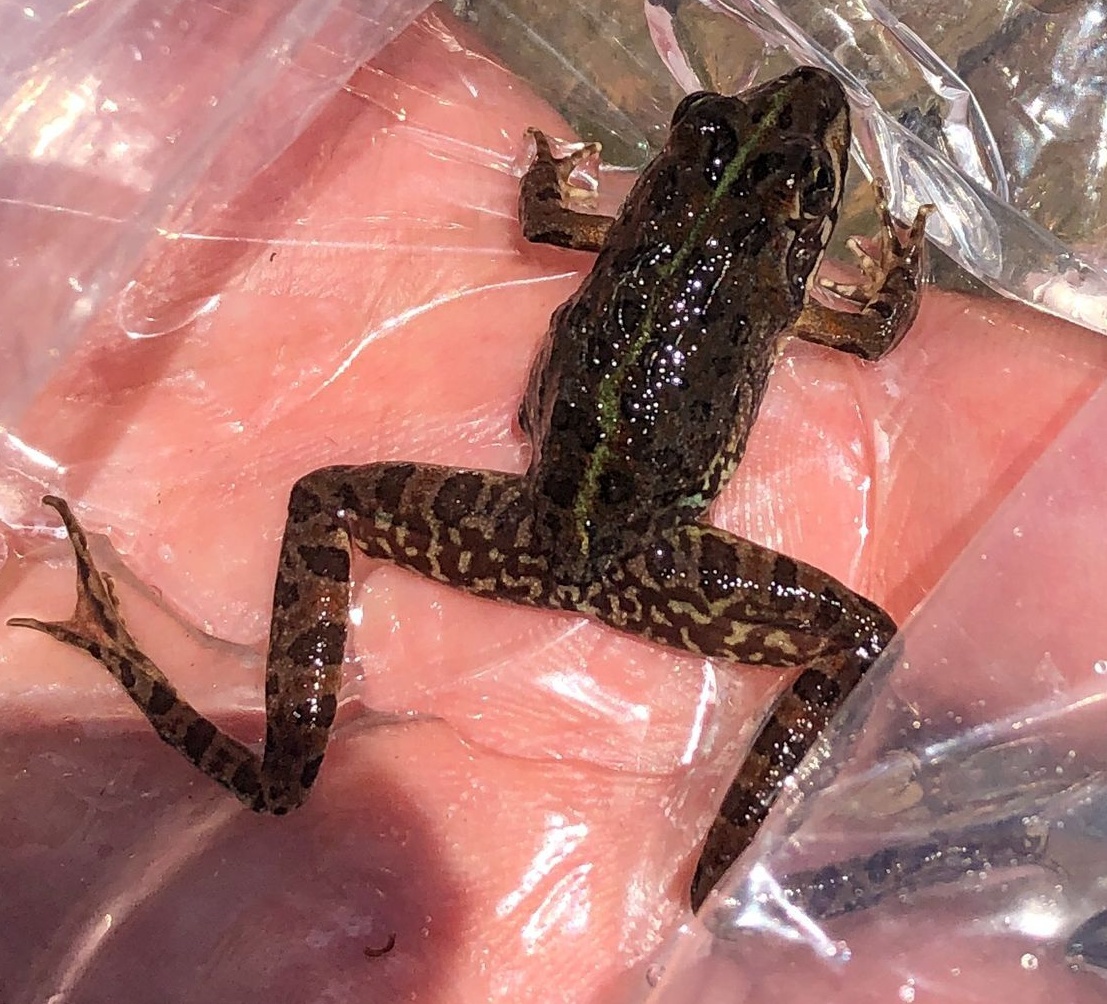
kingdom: Animalia
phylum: Chordata
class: Amphibia
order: Anura
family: Pyxicephalidae
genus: Amietia
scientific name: Amietia delalandii
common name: Delalande's river frog
